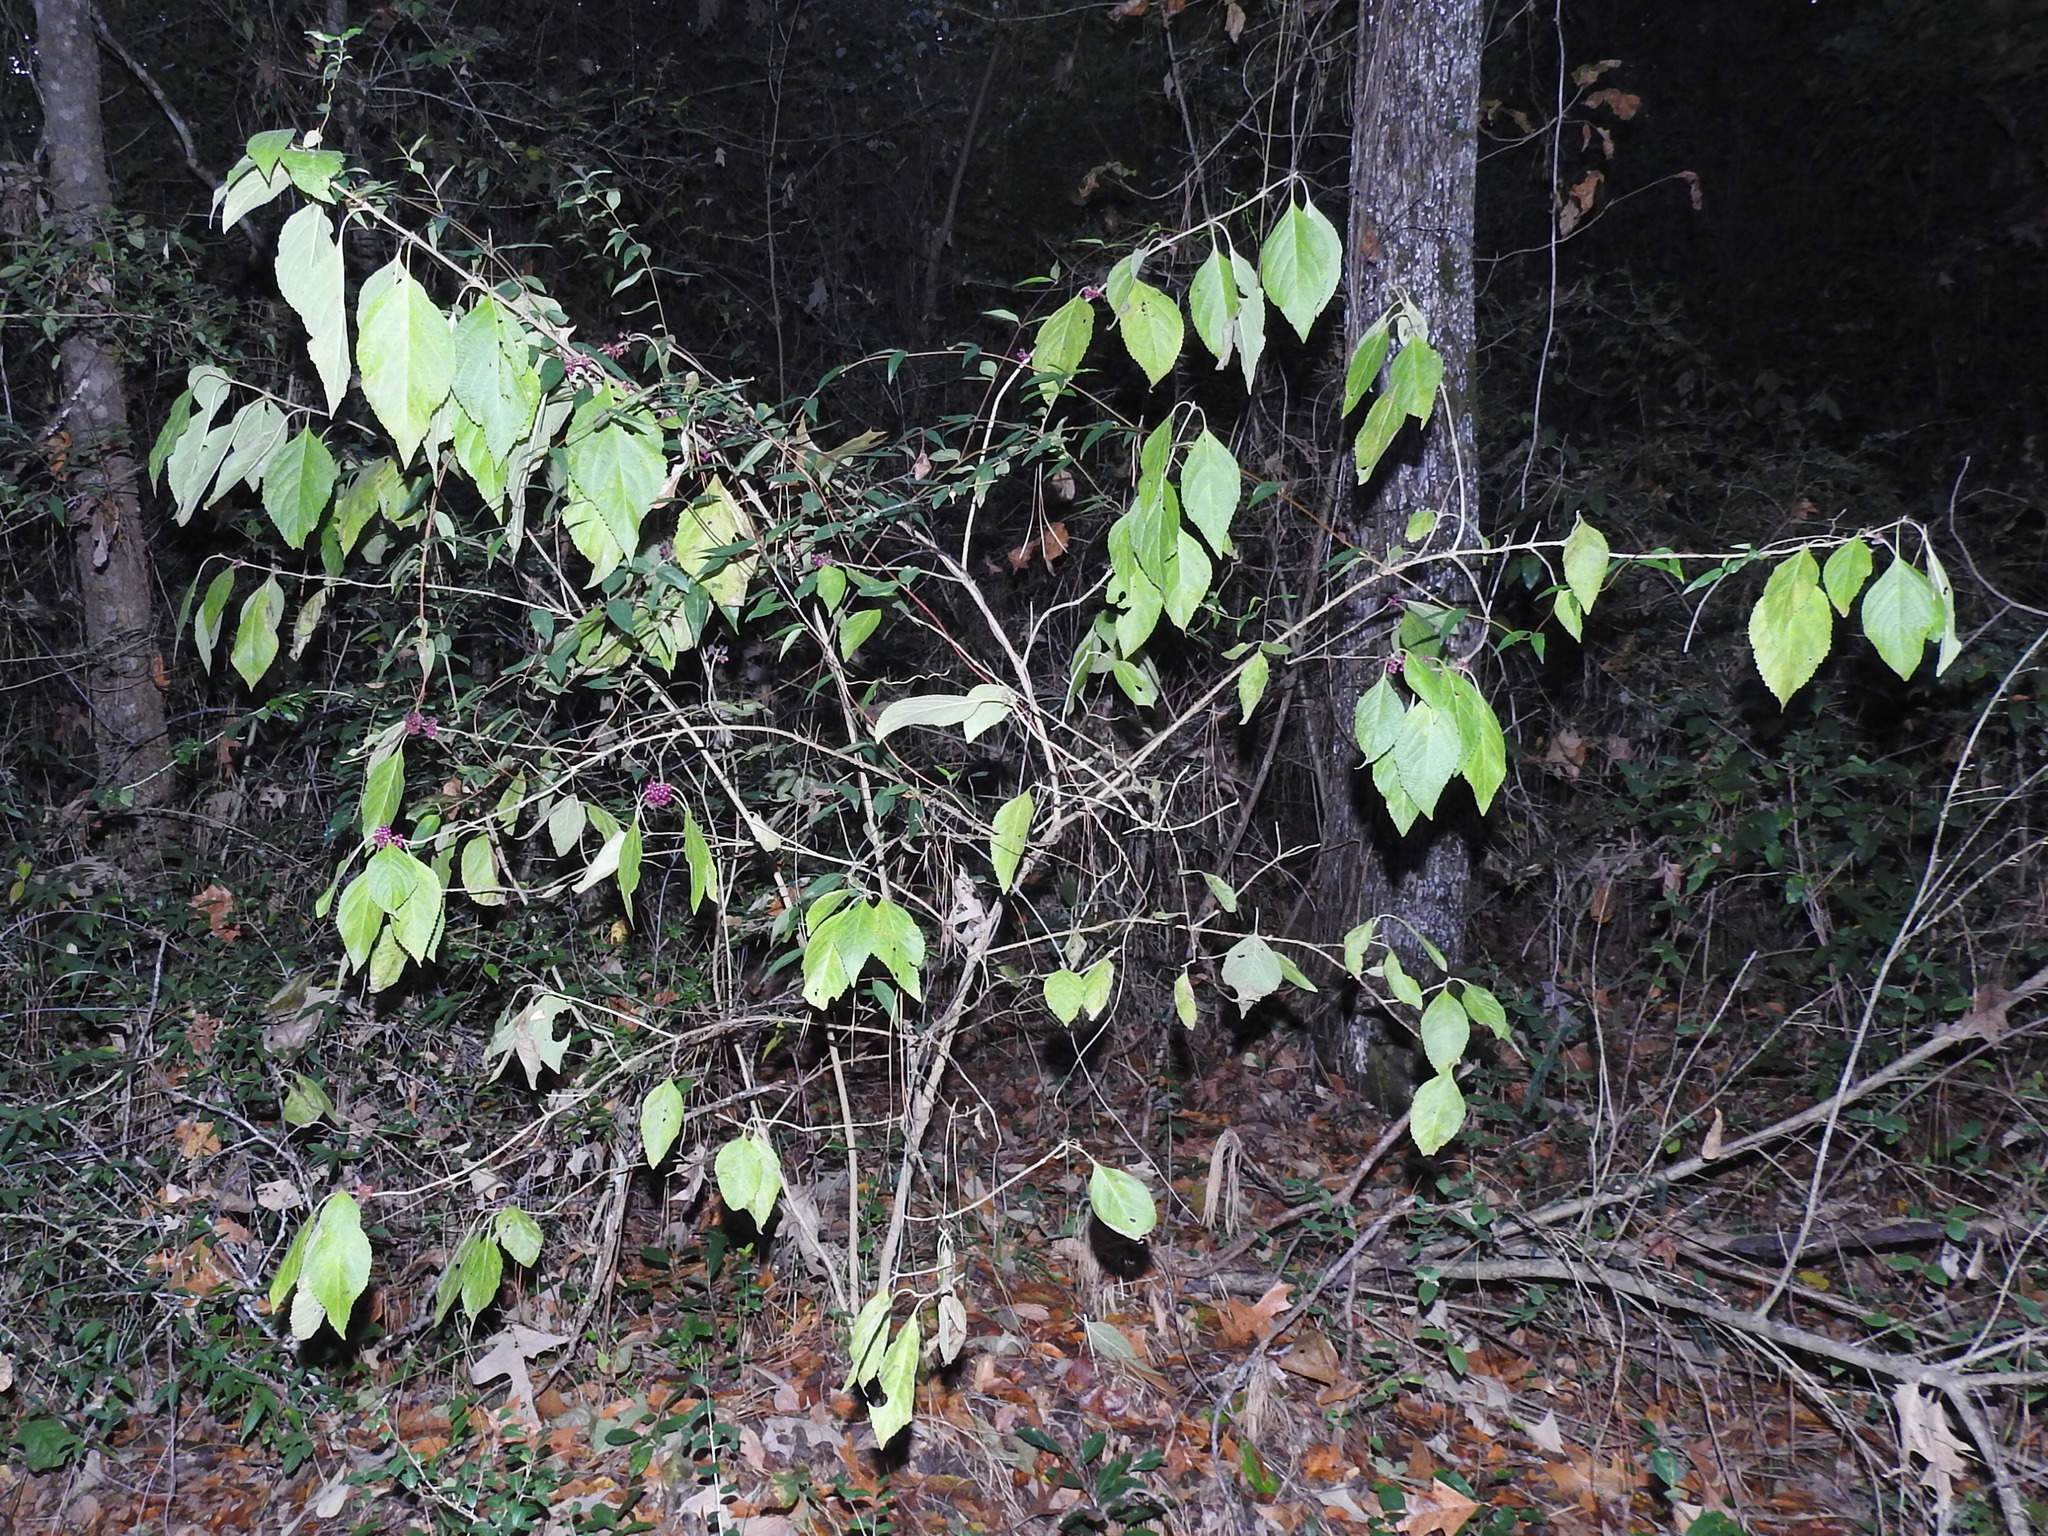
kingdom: Plantae
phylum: Tracheophyta
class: Magnoliopsida
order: Lamiales
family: Lamiaceae
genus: Callicarpa
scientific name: Callicarpa americana
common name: American beautyberry
